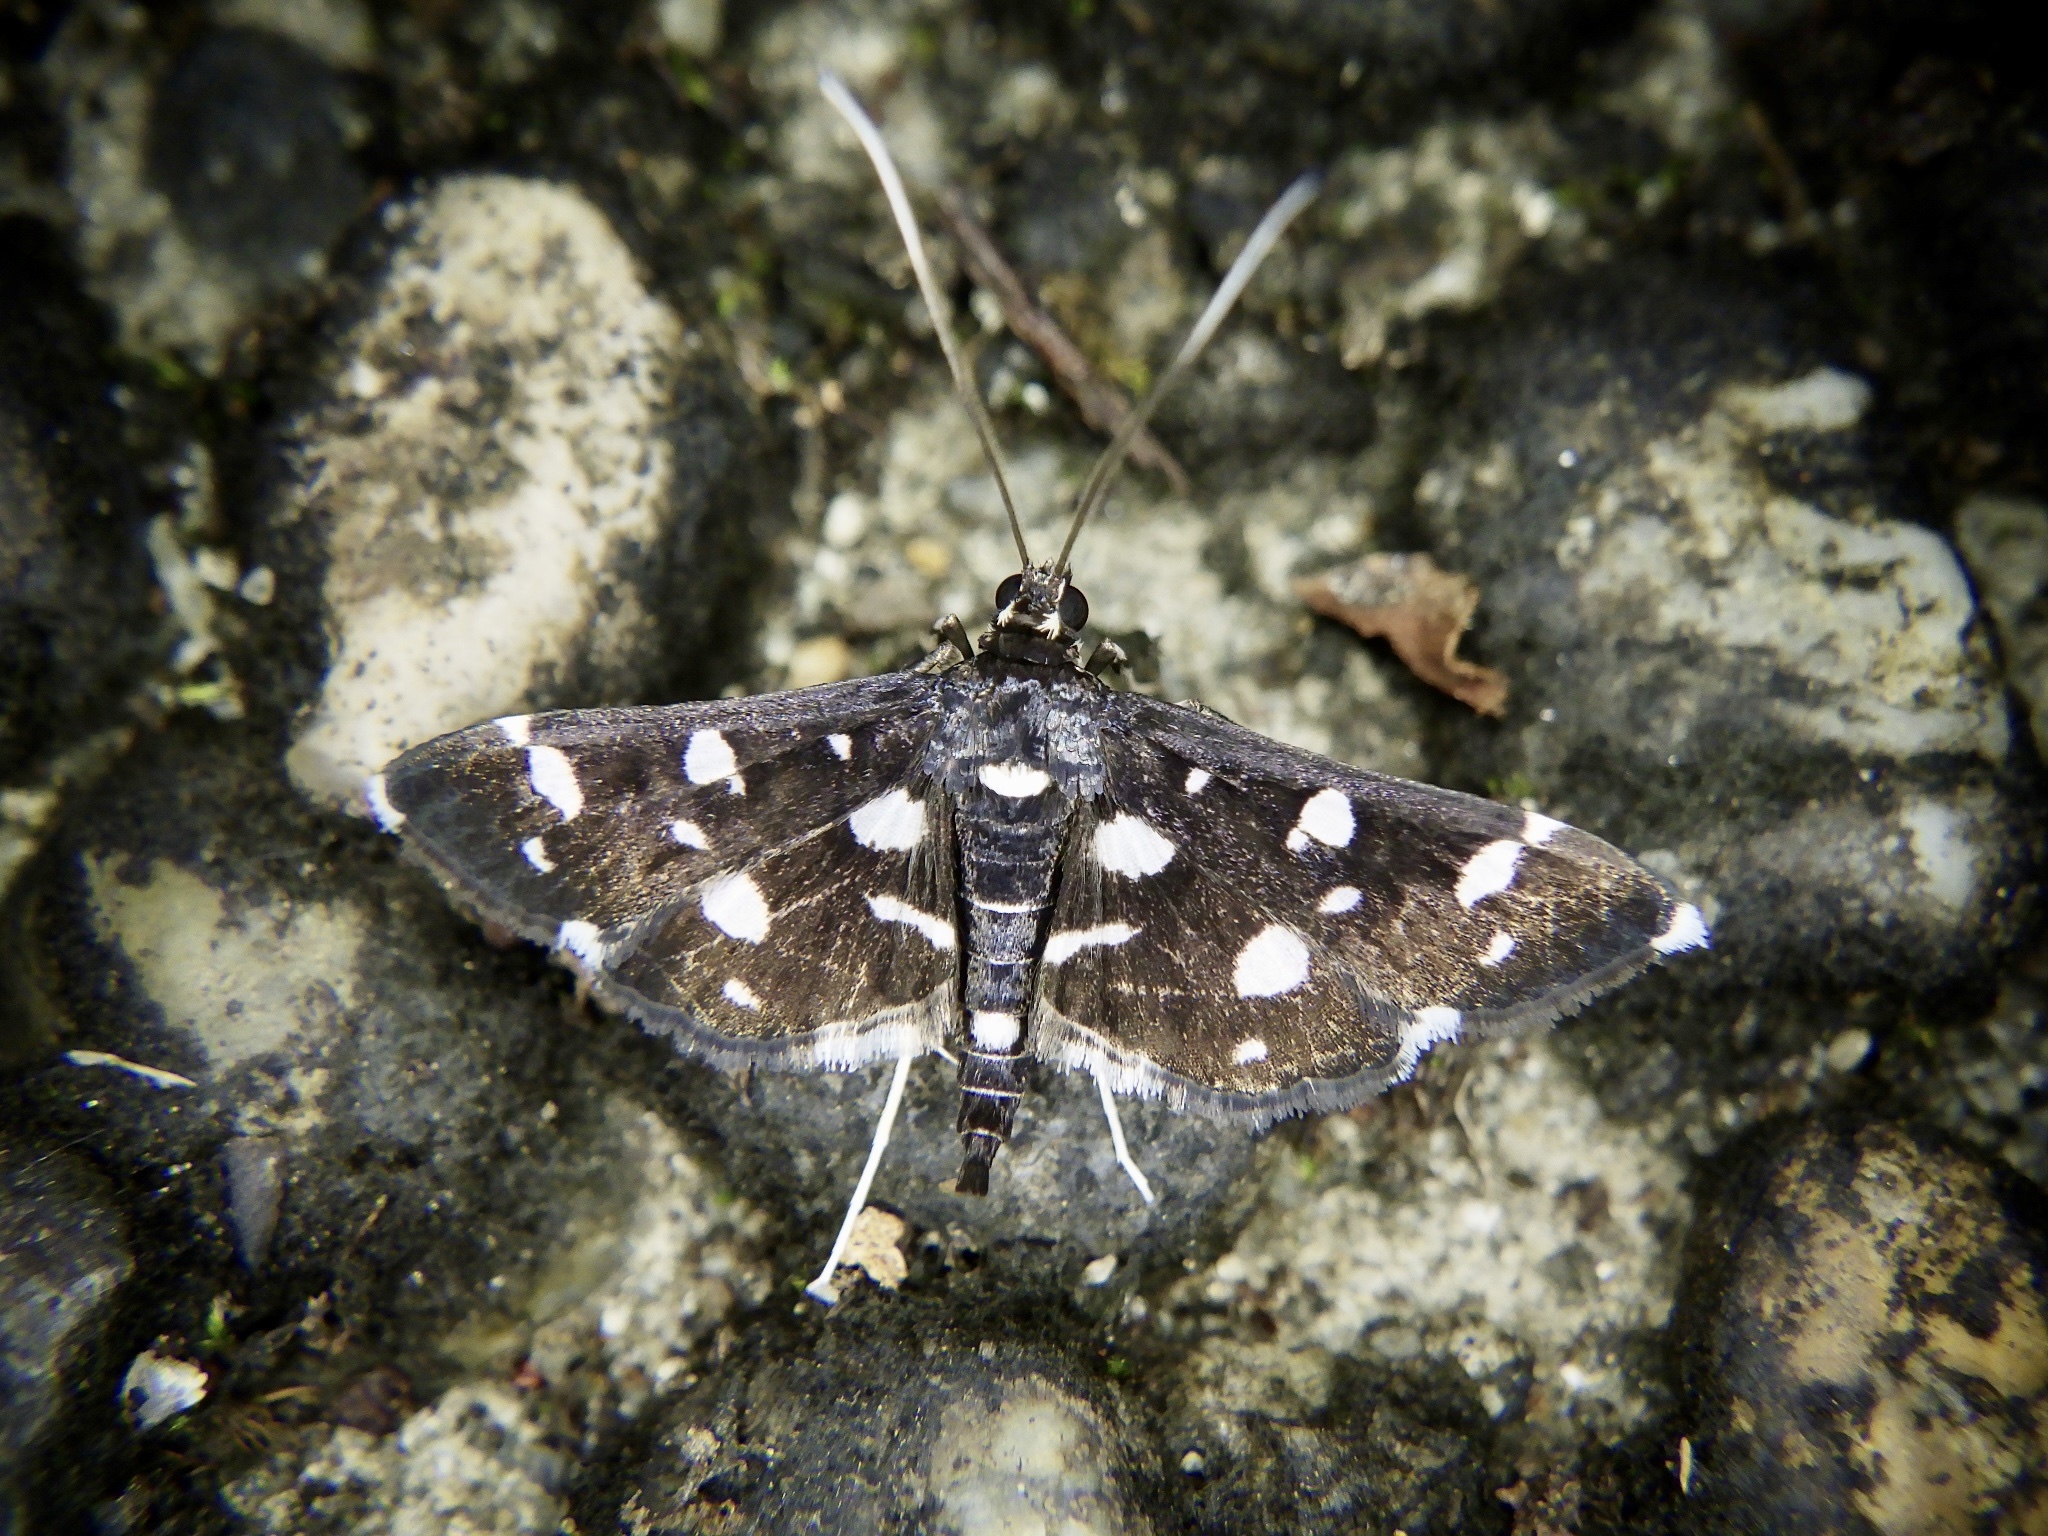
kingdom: Animalia
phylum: Arthropoda
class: Insecta
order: Lepidoptera
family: Crambidae
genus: Bocchoris
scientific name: Bocchoris inspersalis
